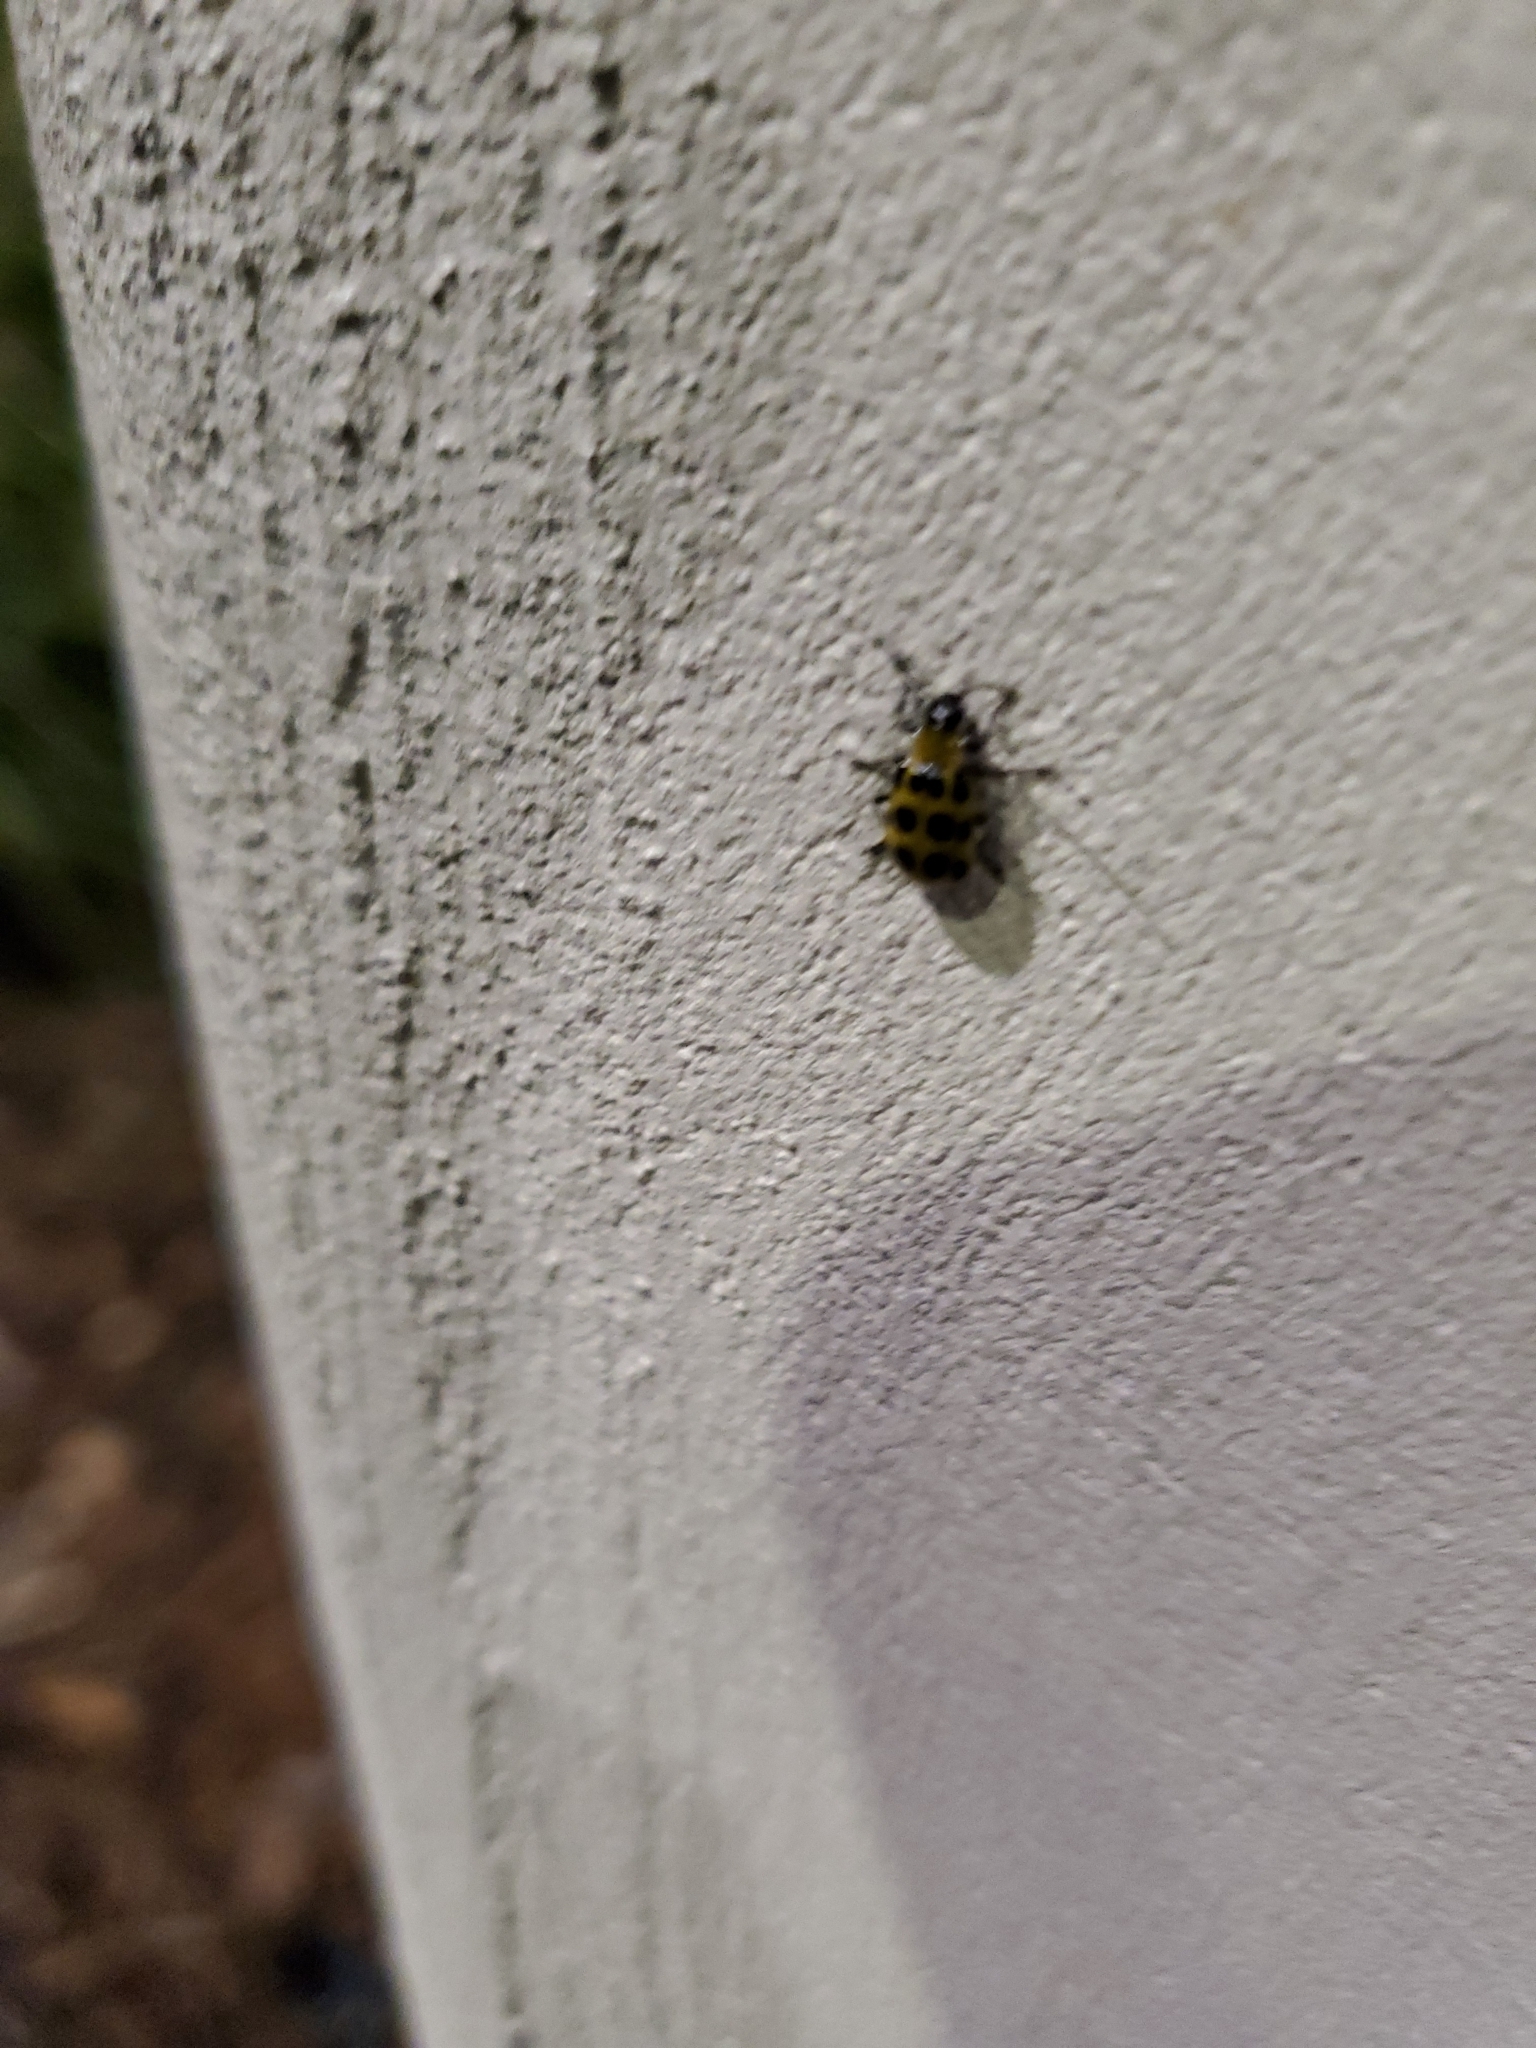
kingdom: Animalia
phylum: Arthropoda
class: Insecta
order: Coleoptera
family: Chrysomelidae
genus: Diabrotica
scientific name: Diabrotica undecimpunctata
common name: Spotted cucumber beetle
